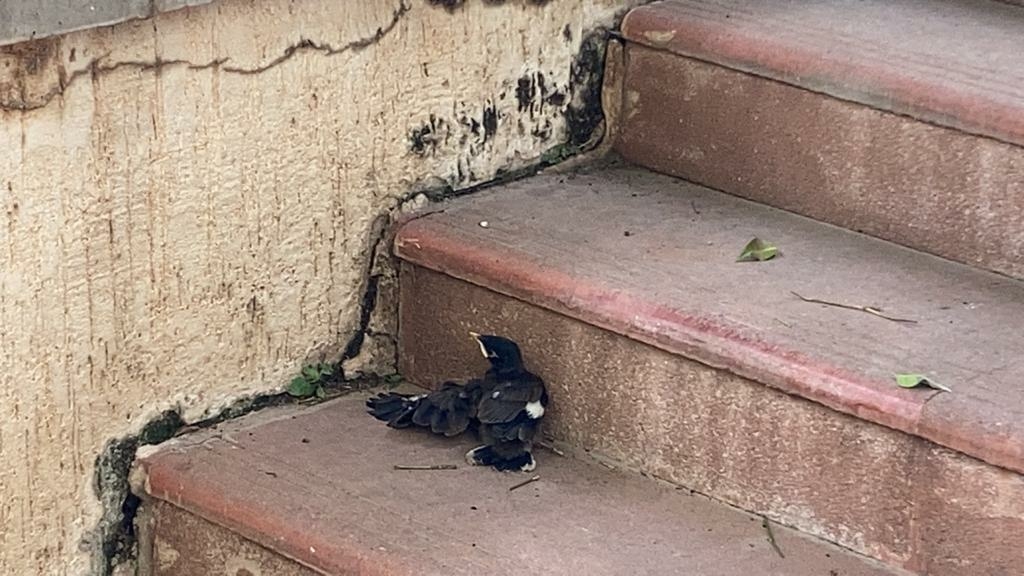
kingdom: Animalia
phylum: Chordata
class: Aves
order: Passeriformes
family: Sturnidae
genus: Acridotheres
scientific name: Acridotheres tristis
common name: Common myna
